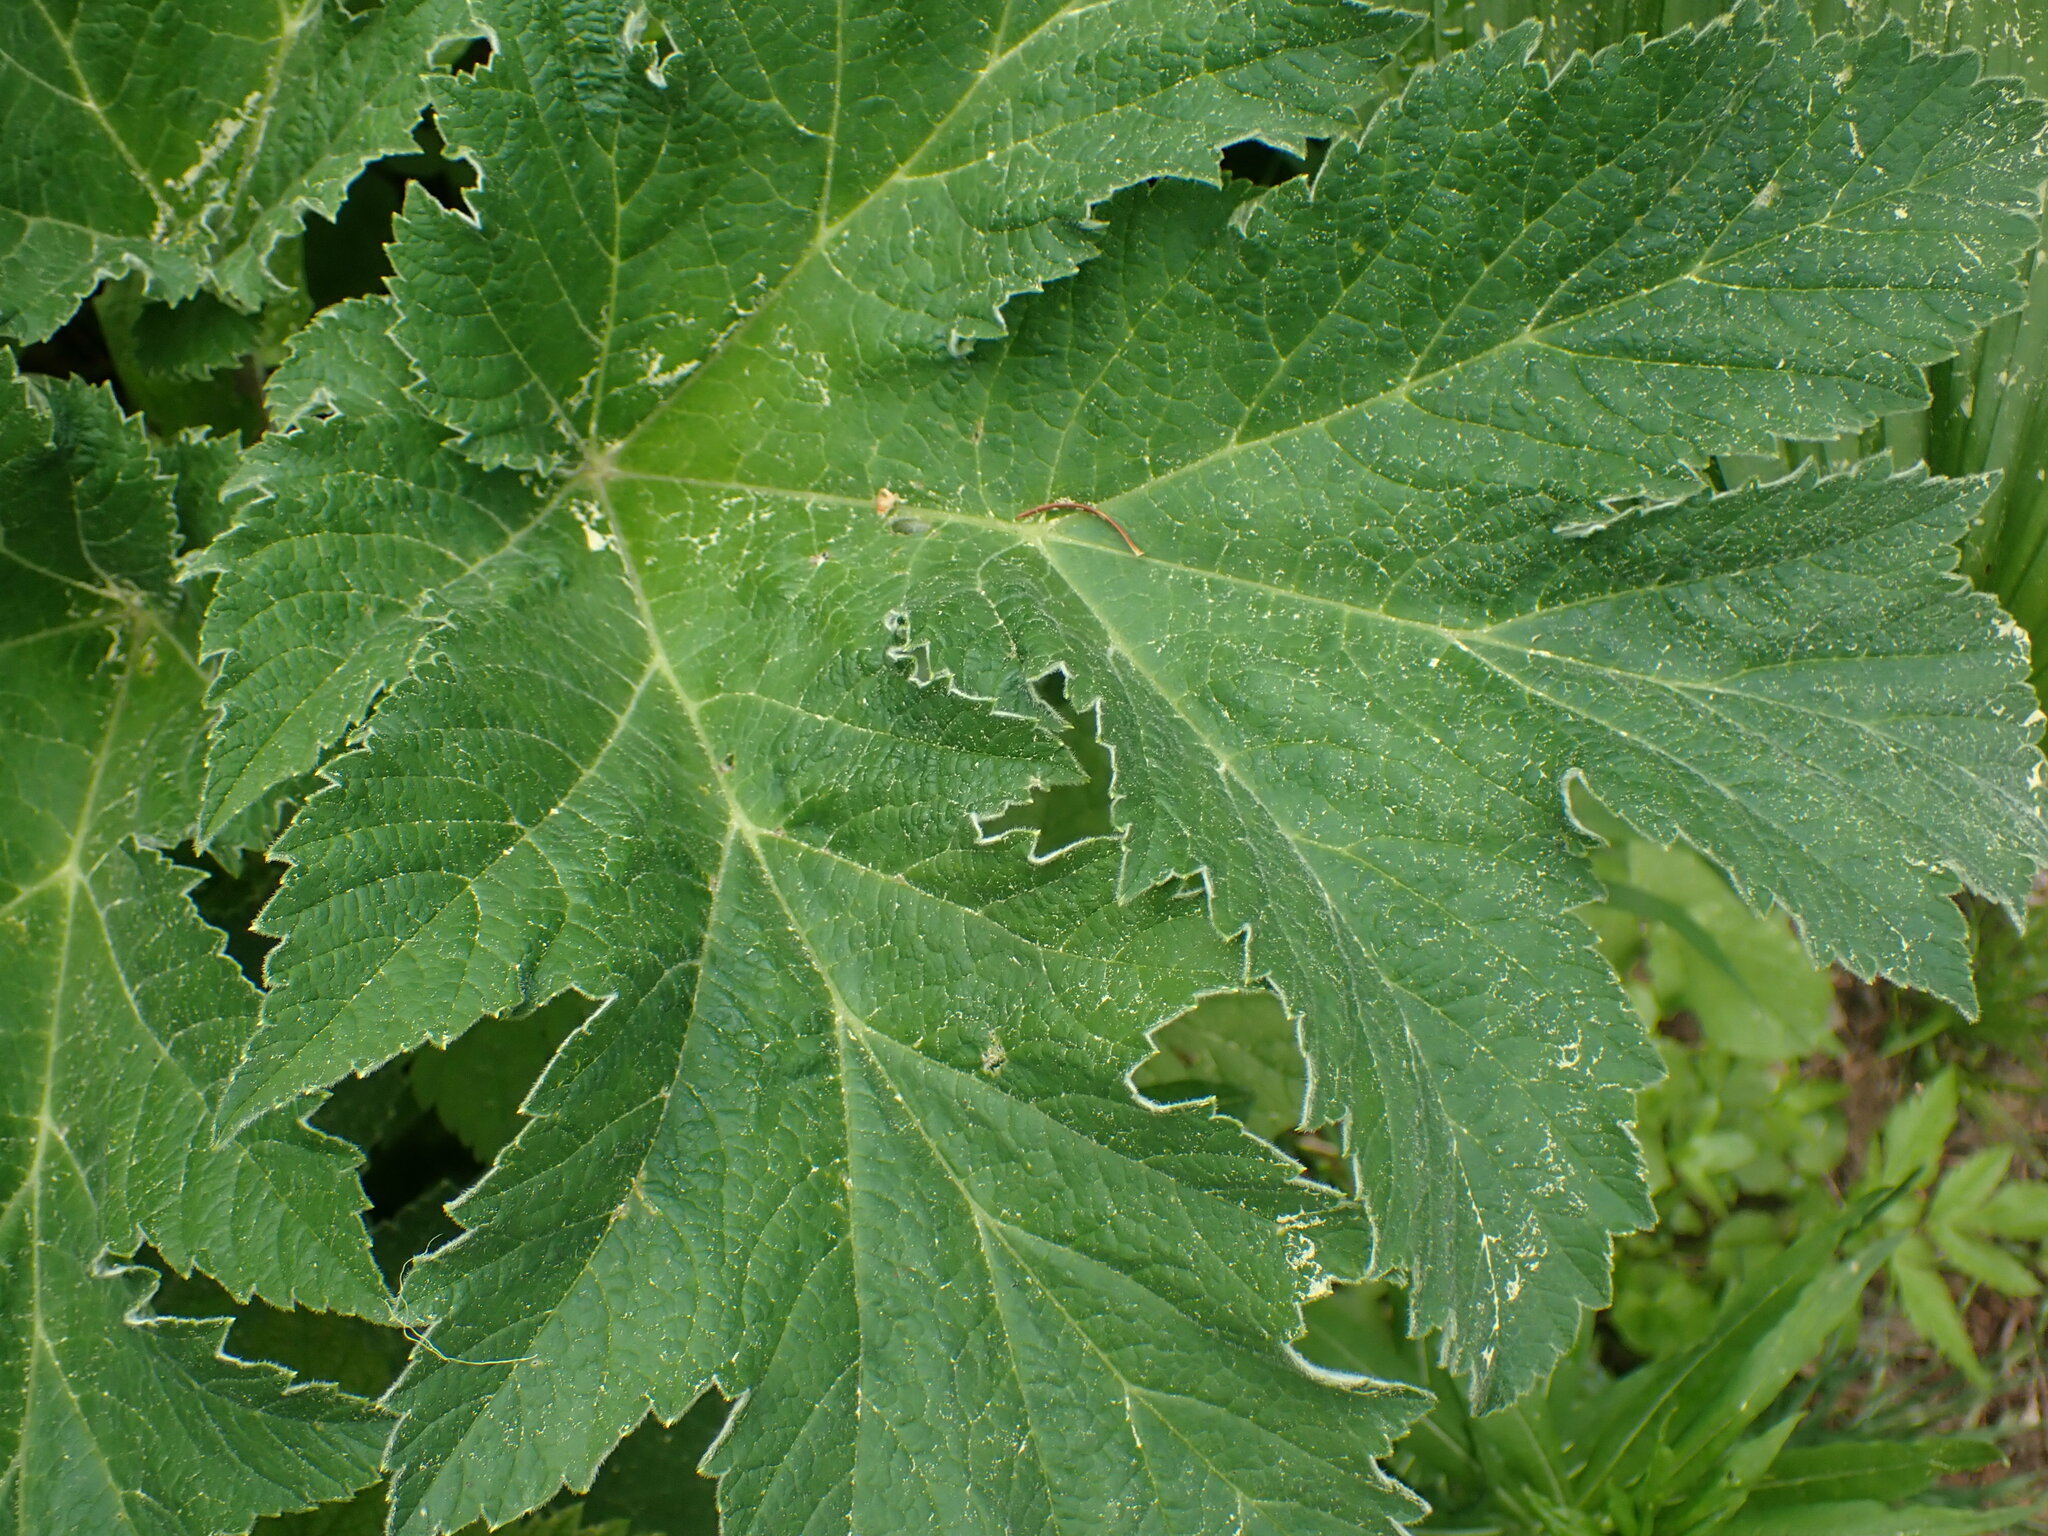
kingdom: Plantae
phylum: Tracheophyta
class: Magnoliopsida
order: Apiales
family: Apiaceae
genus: Heracleum
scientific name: Heracleum maximum
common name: American cow parsnip
